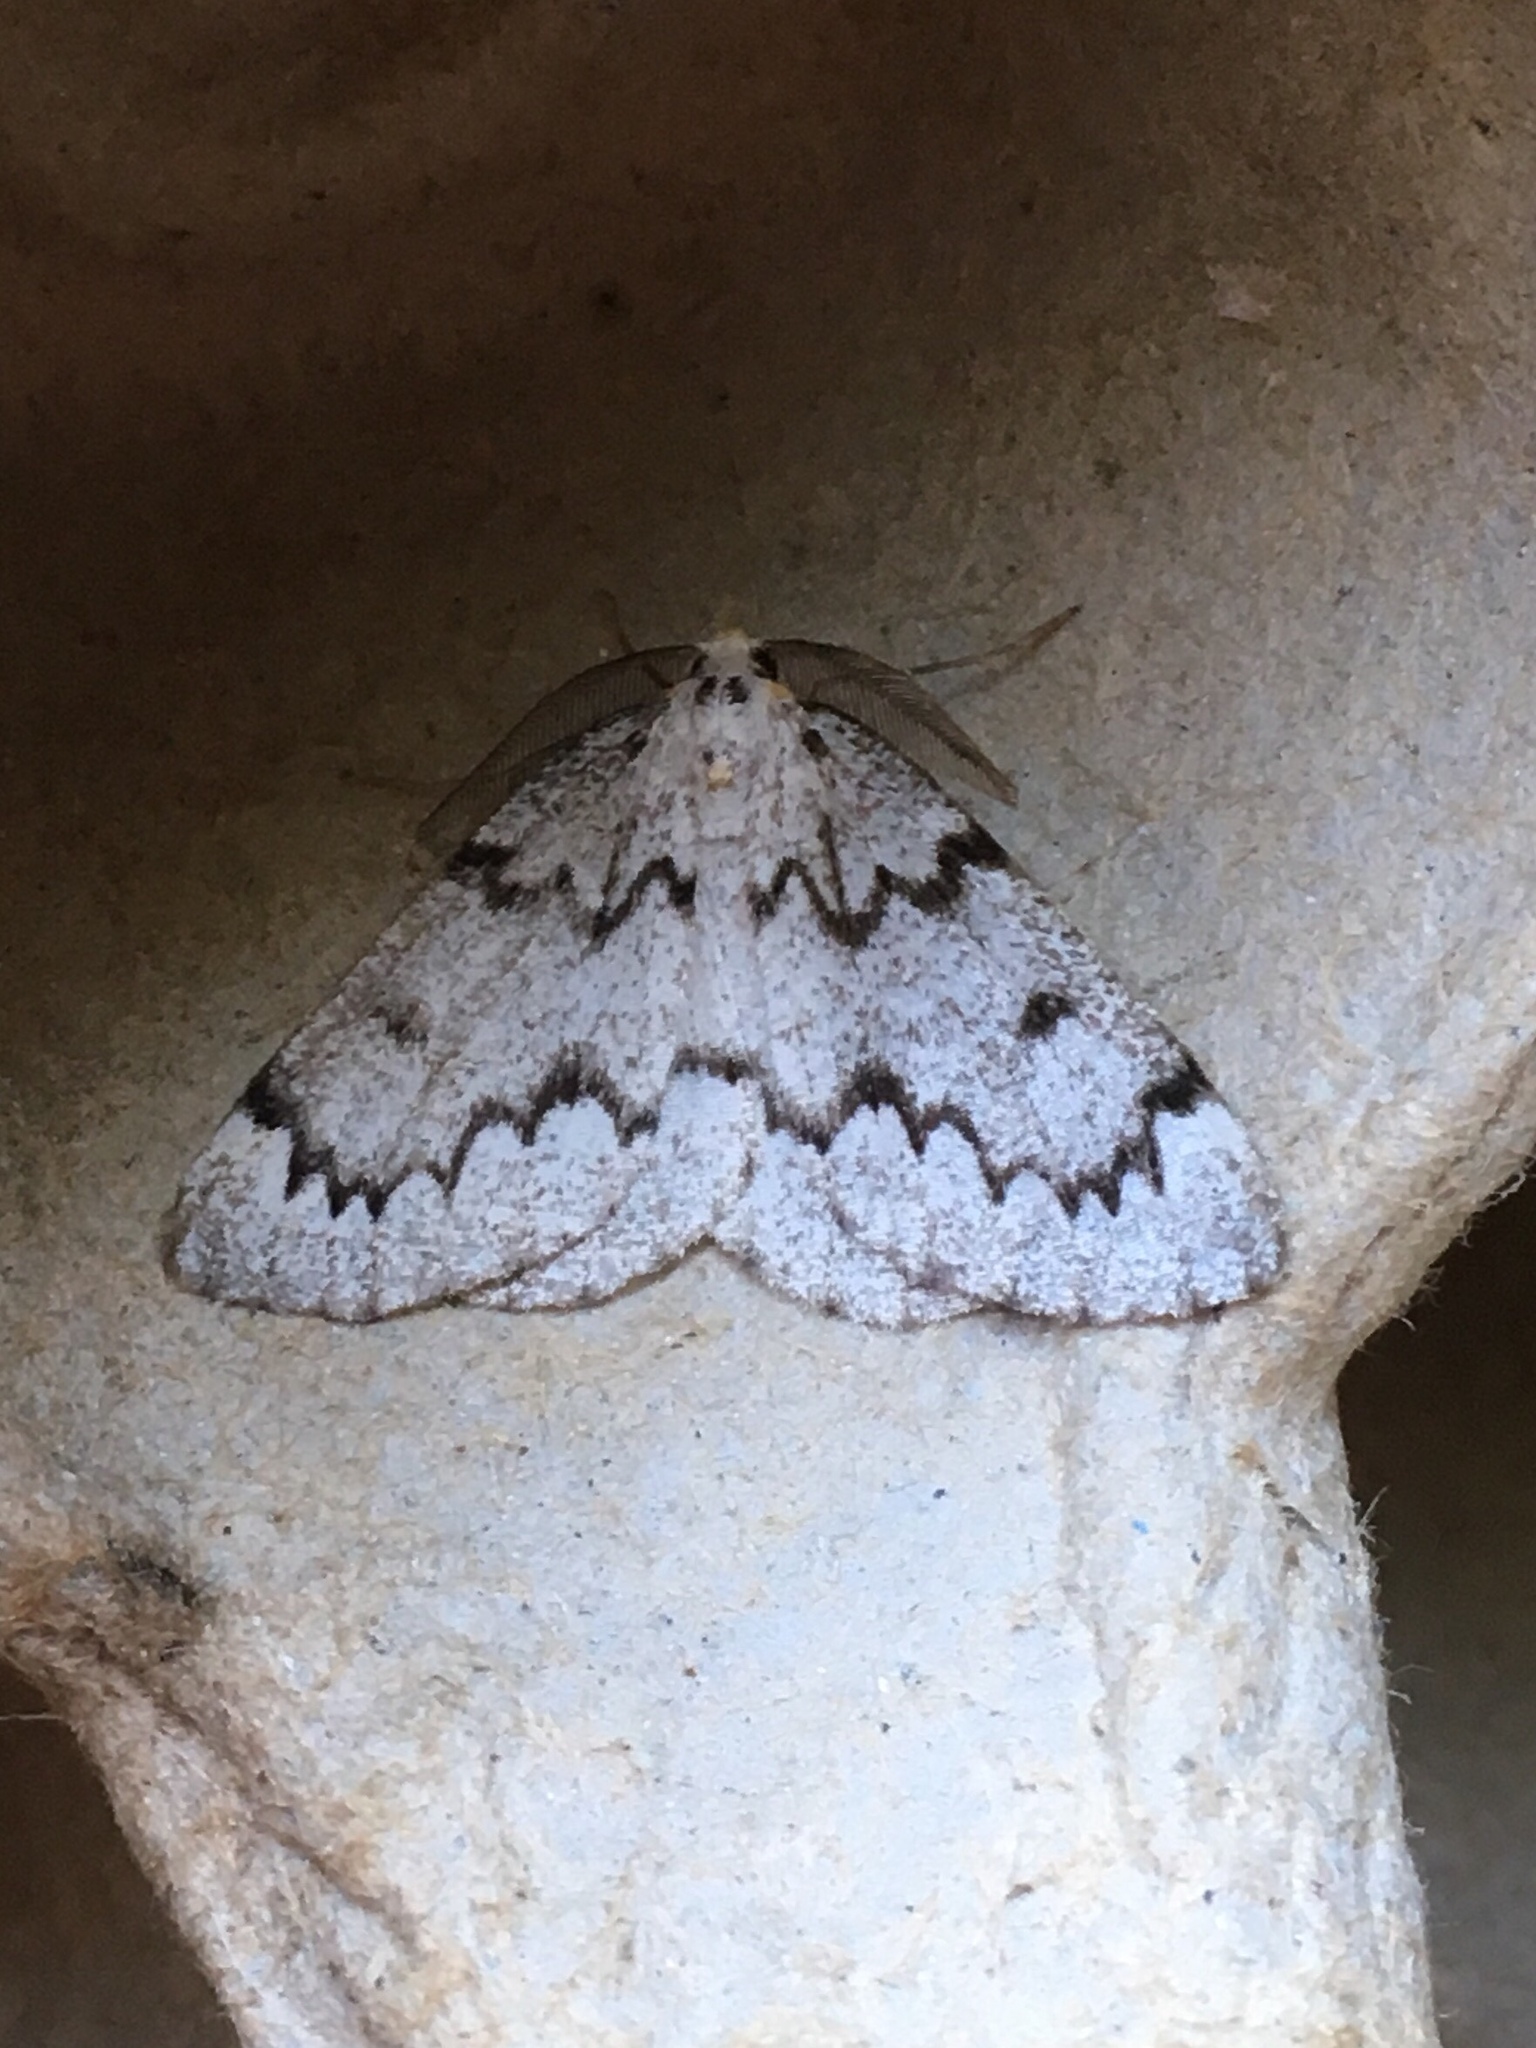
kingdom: Animalia
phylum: Arthropoda
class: Insecta
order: Lepidoptera
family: Geometridae
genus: Nepytia
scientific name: Nepytia canosaria
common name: False hemlock looper
